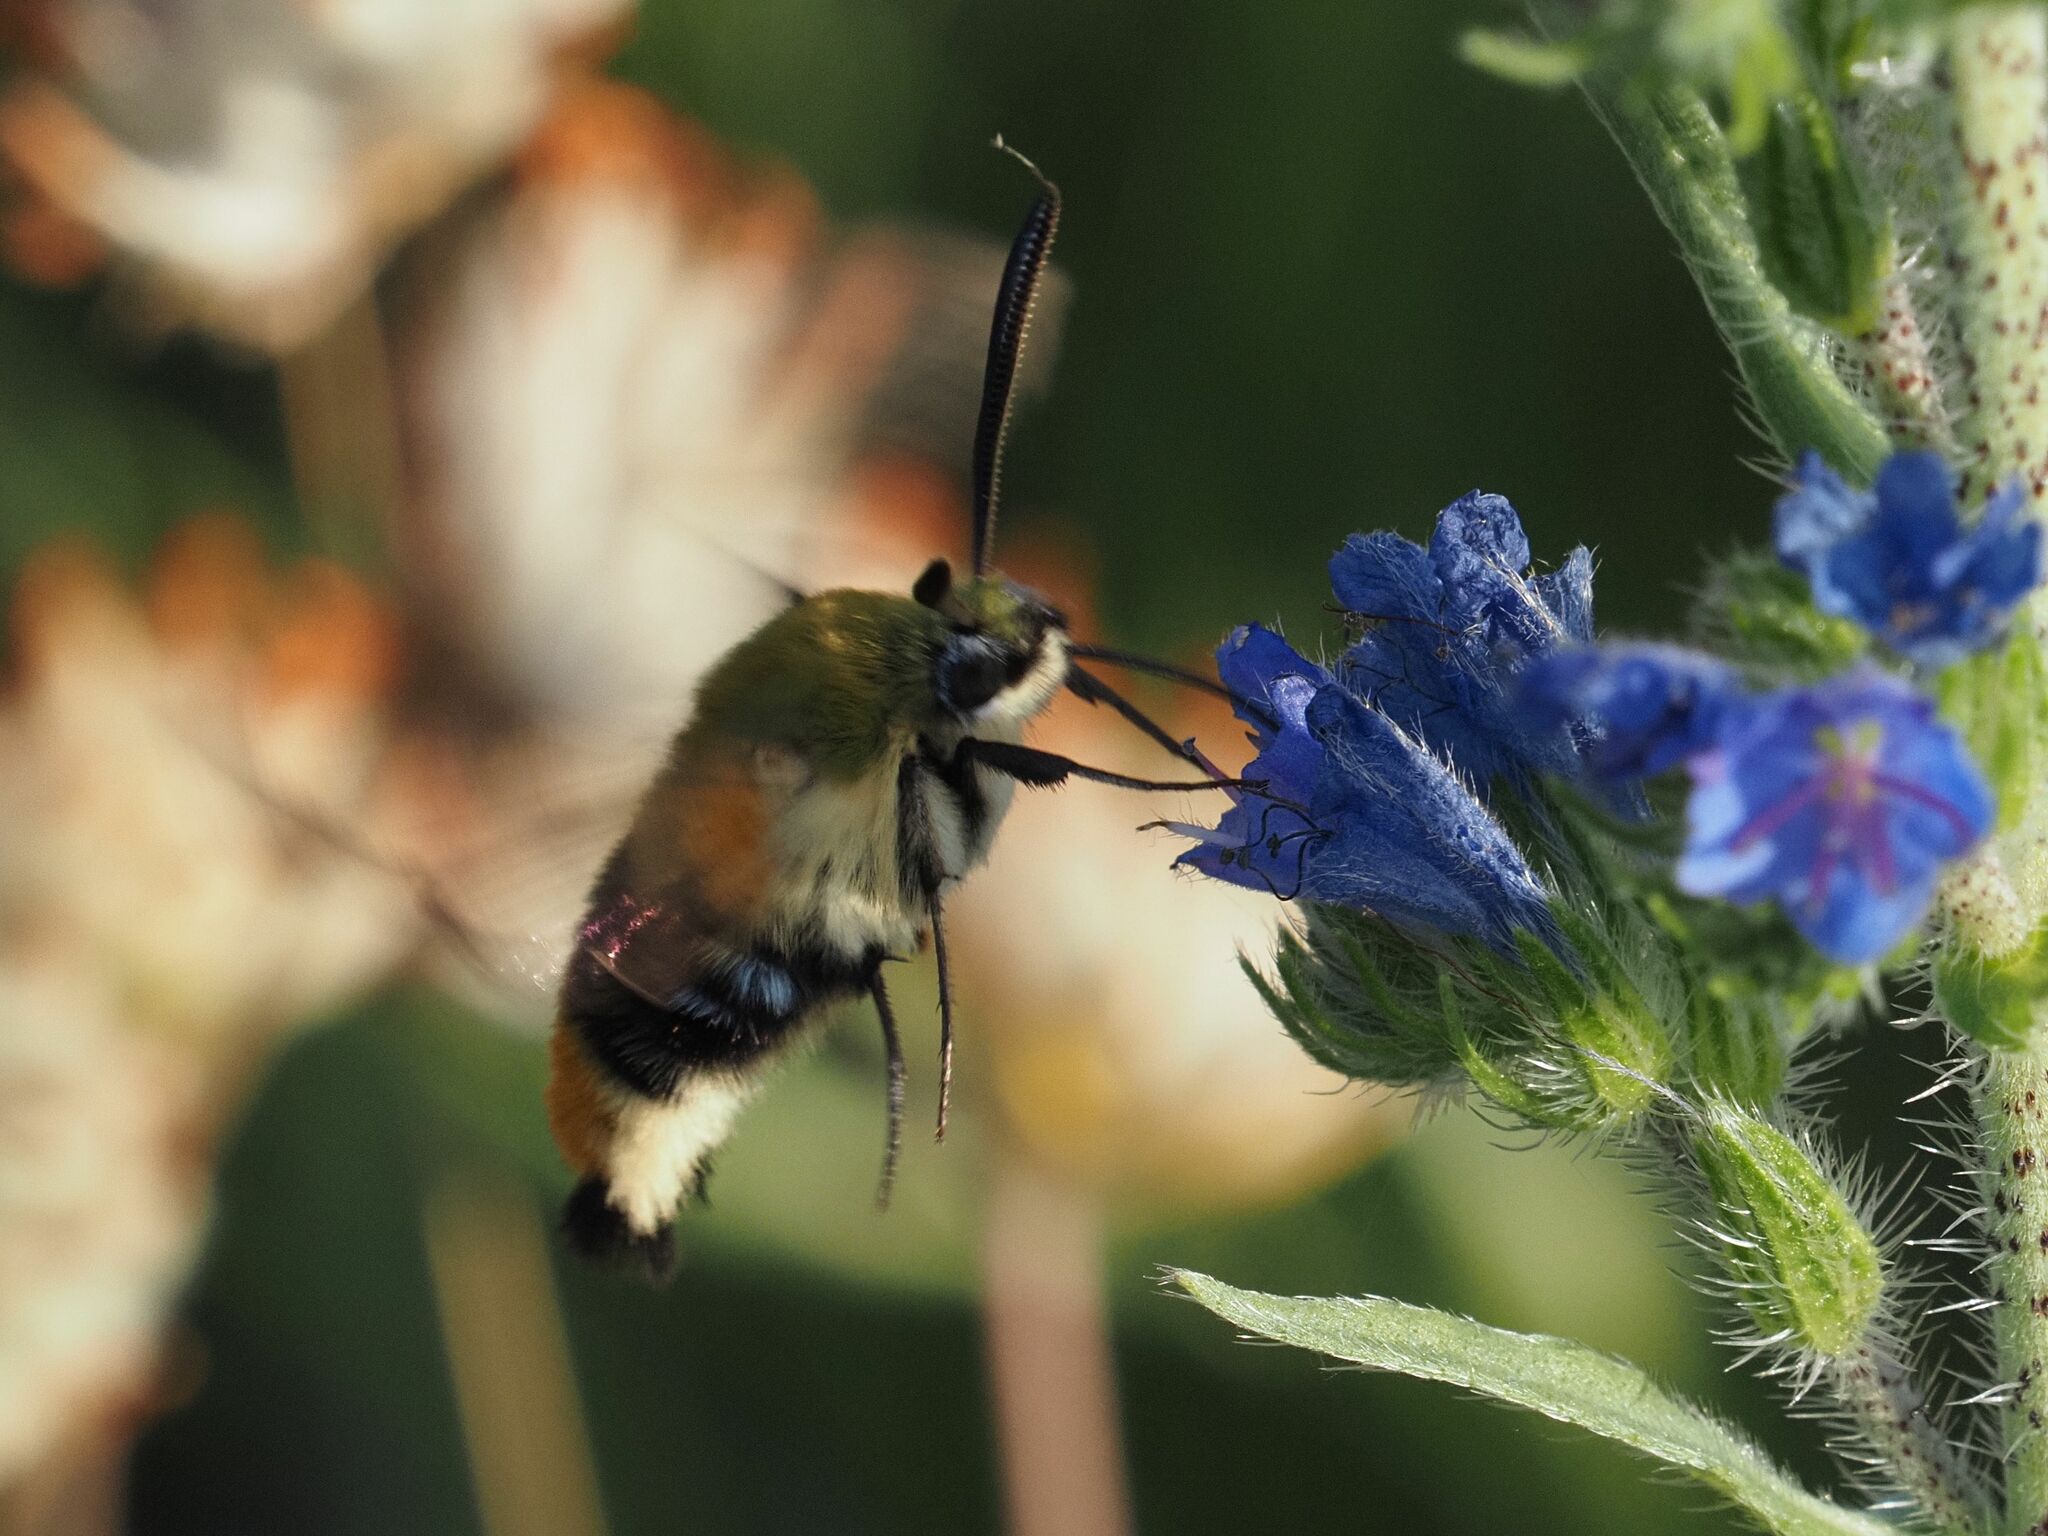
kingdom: Animalia
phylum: Arthropoda
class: Insecta
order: Lepidoptera
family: Sphingidae
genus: Hemaris
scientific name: Hemaris tityus
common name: Narrow-bordered bee hawk-moth
